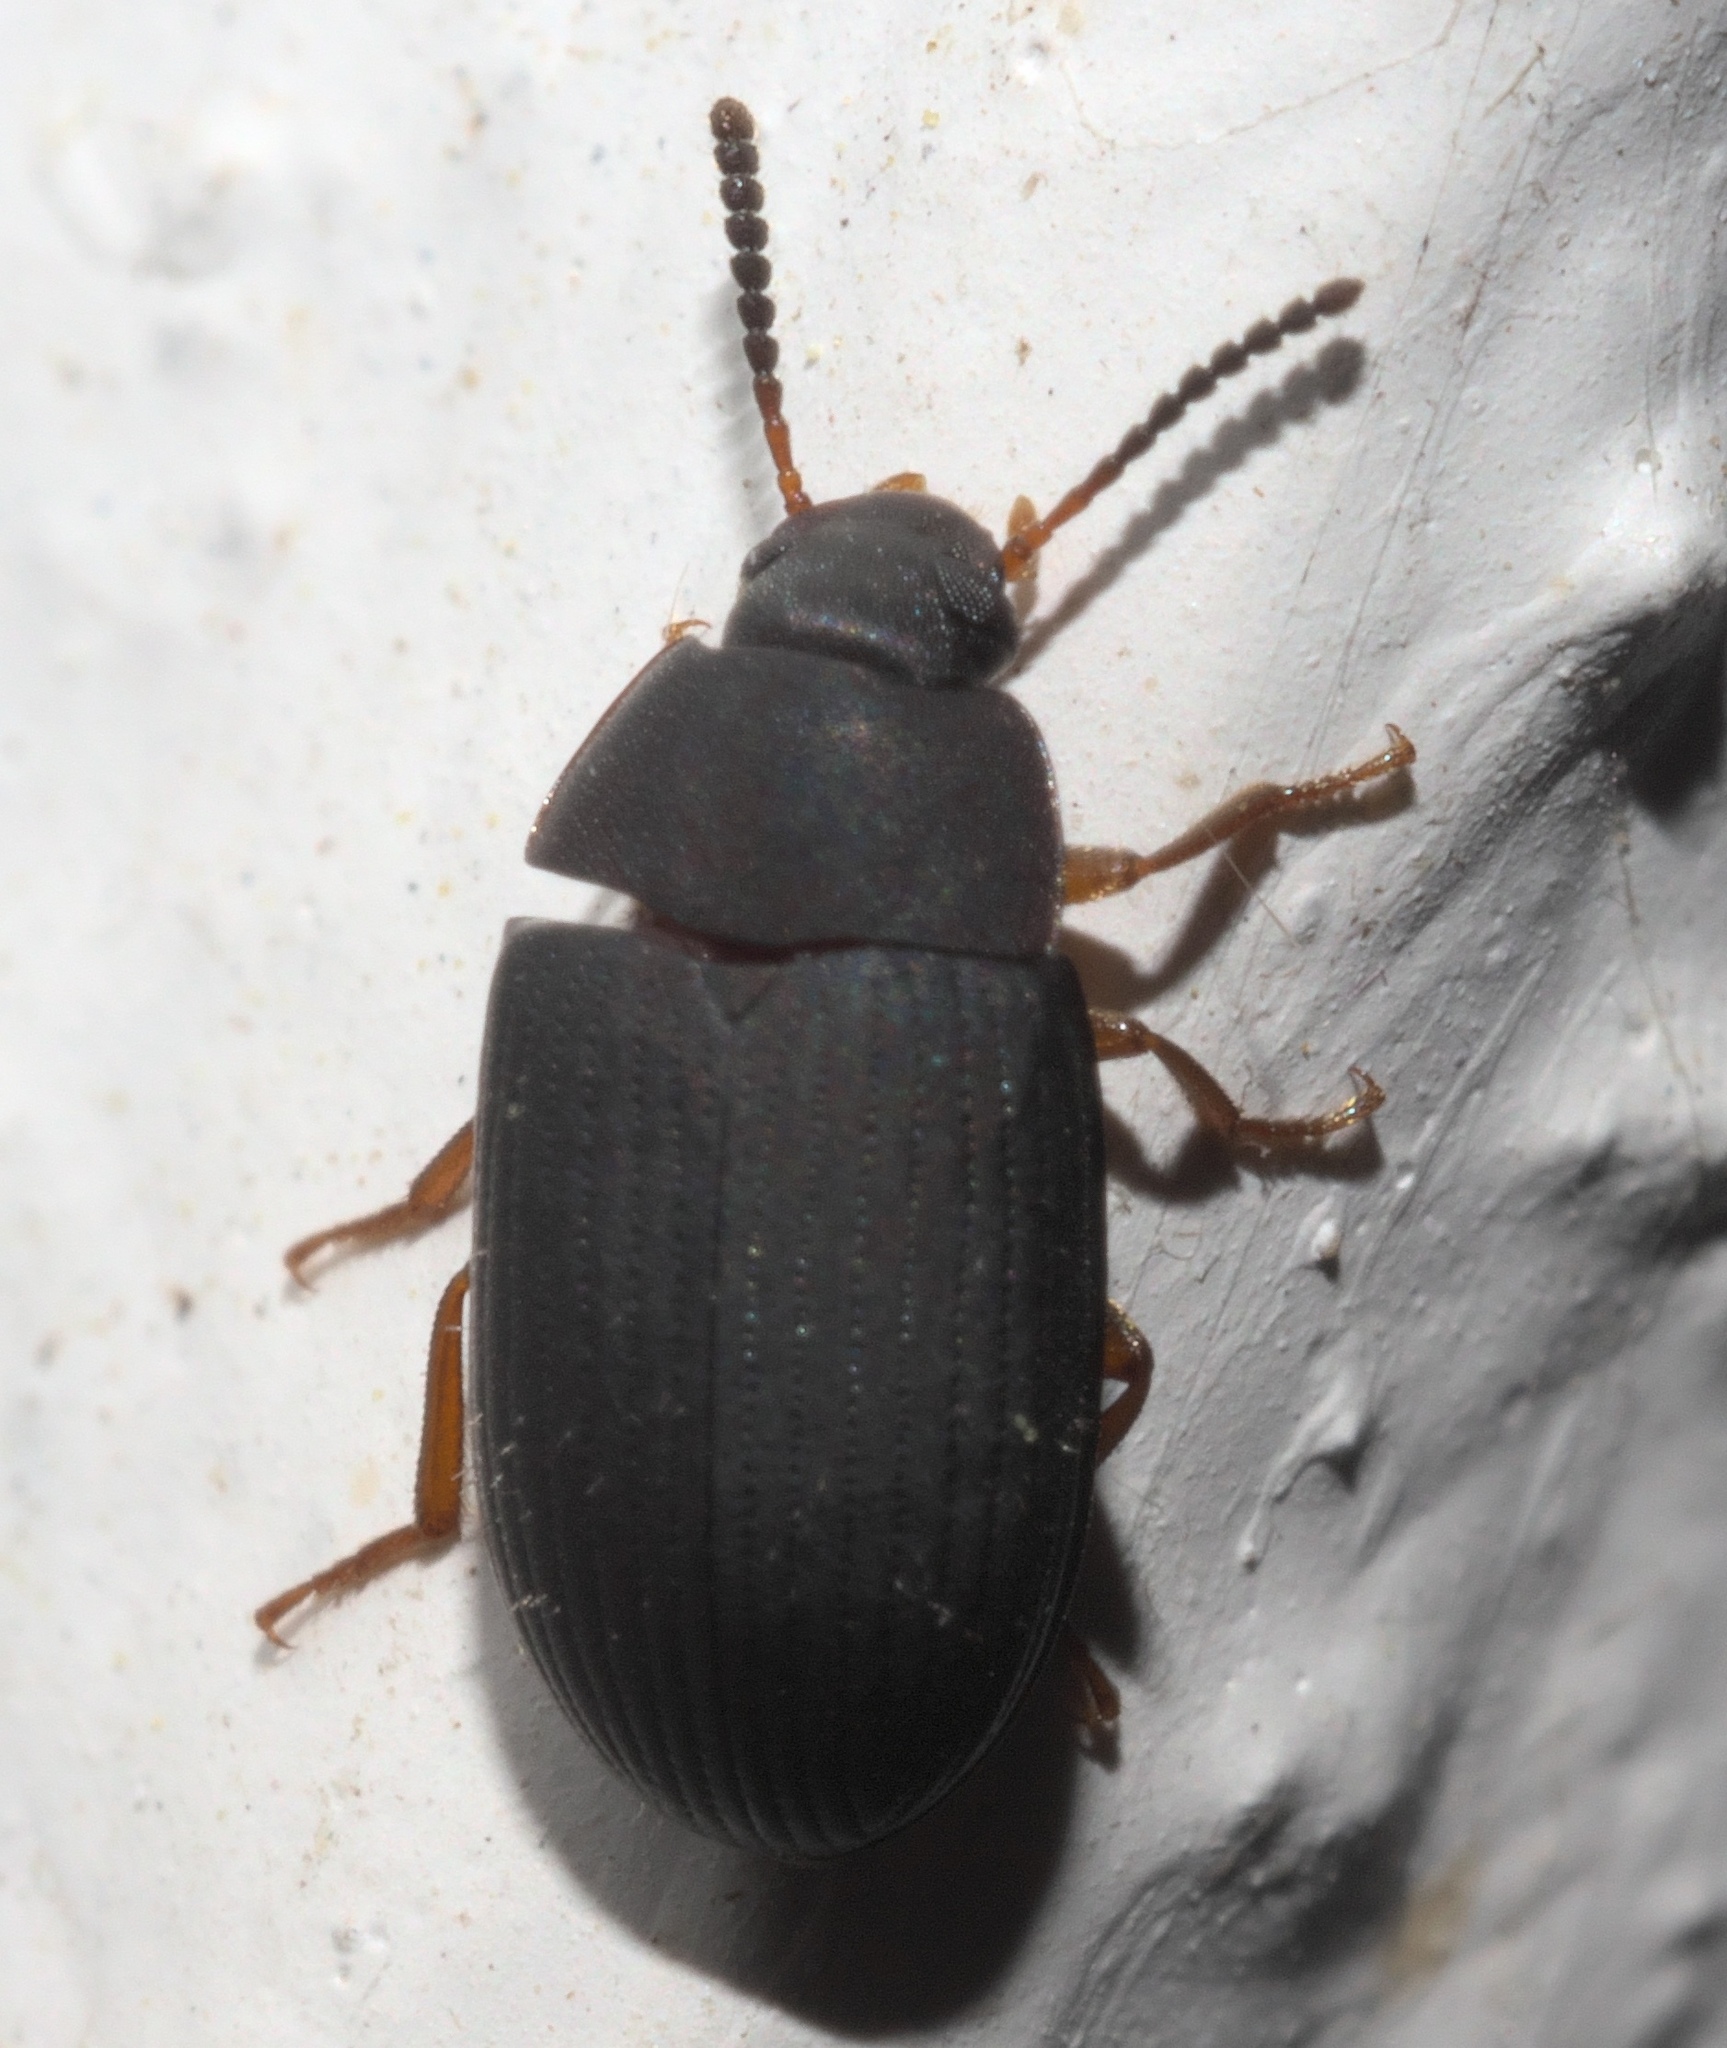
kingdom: Animalia
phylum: Arthropoda
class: Insecta
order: Coleoptera
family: Tenebrionidae
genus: Platydema
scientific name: Platydema flavipes
